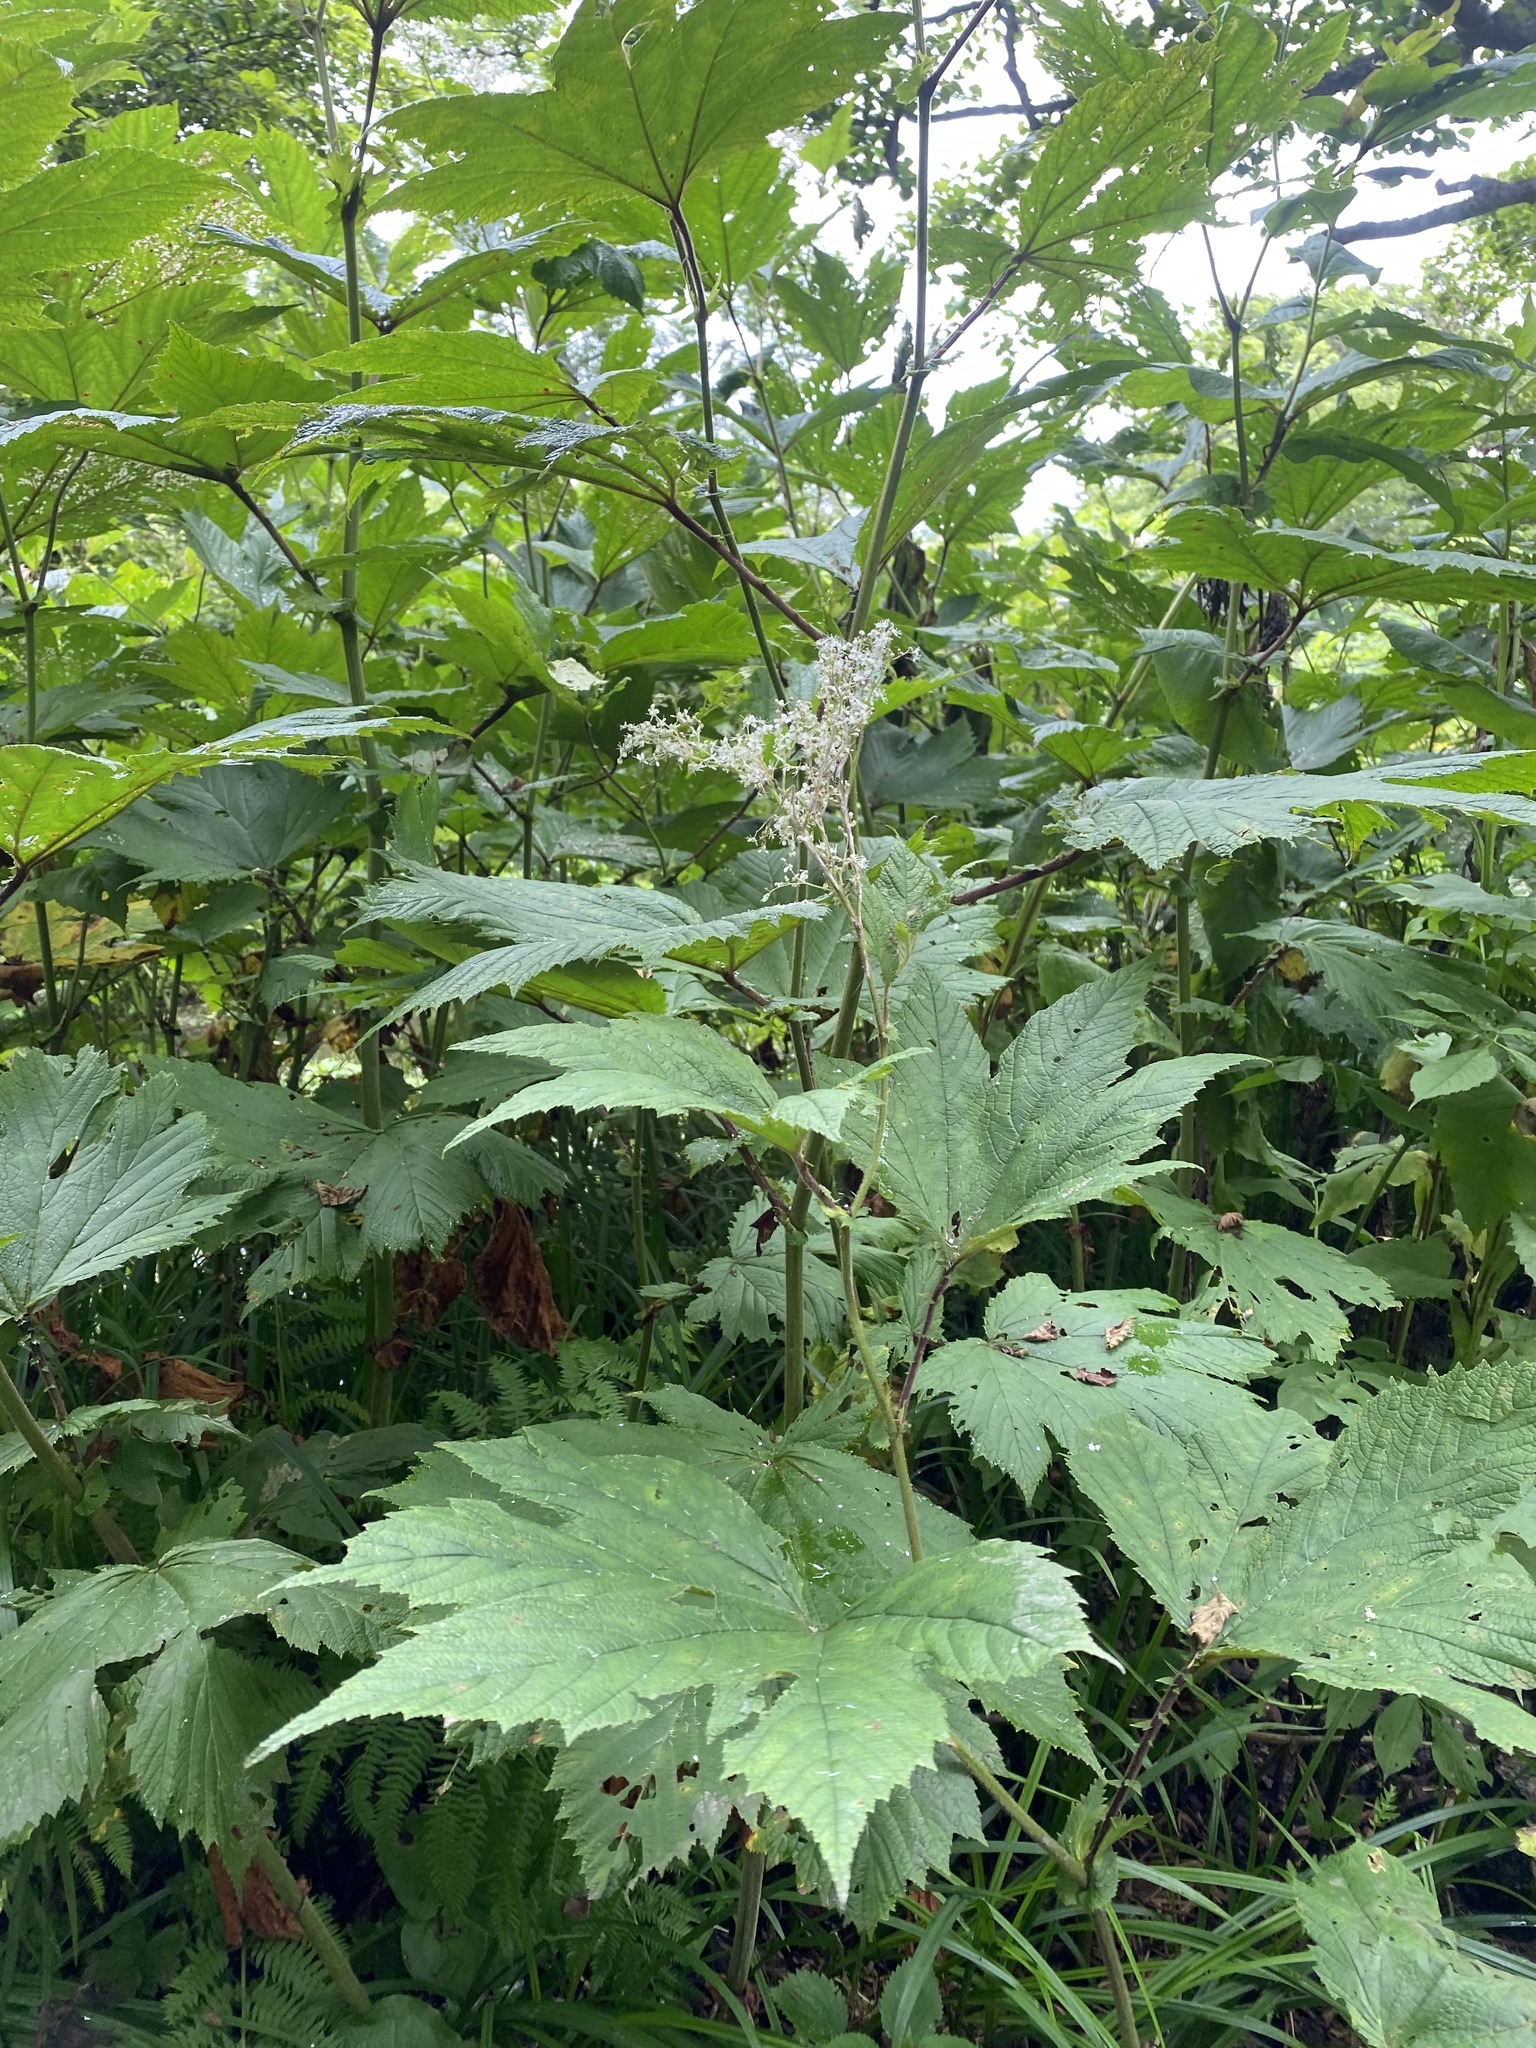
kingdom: Plantae
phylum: Tracheophyta
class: Magnoliopsida
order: Rosales
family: Rosaceae
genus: Filipendula
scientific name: Filipendula camtschatica
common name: Giant meadowsweet
